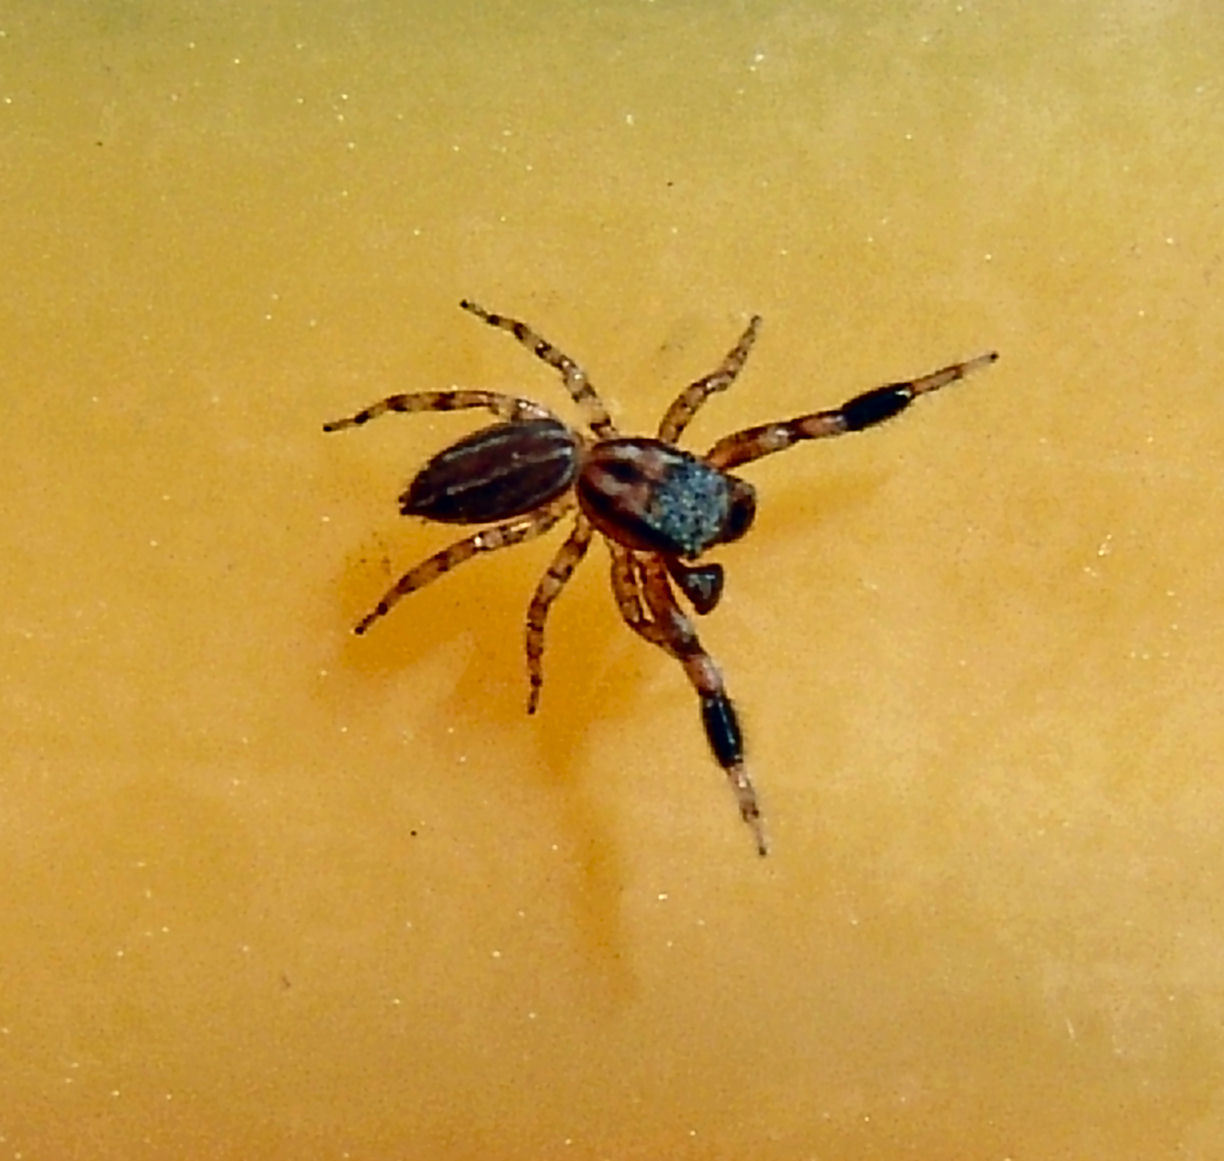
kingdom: Animalia
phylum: Arthropoda
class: Arachnida
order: Araneae
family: Salticidae
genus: Marpissa
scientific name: Marpissa lineata
